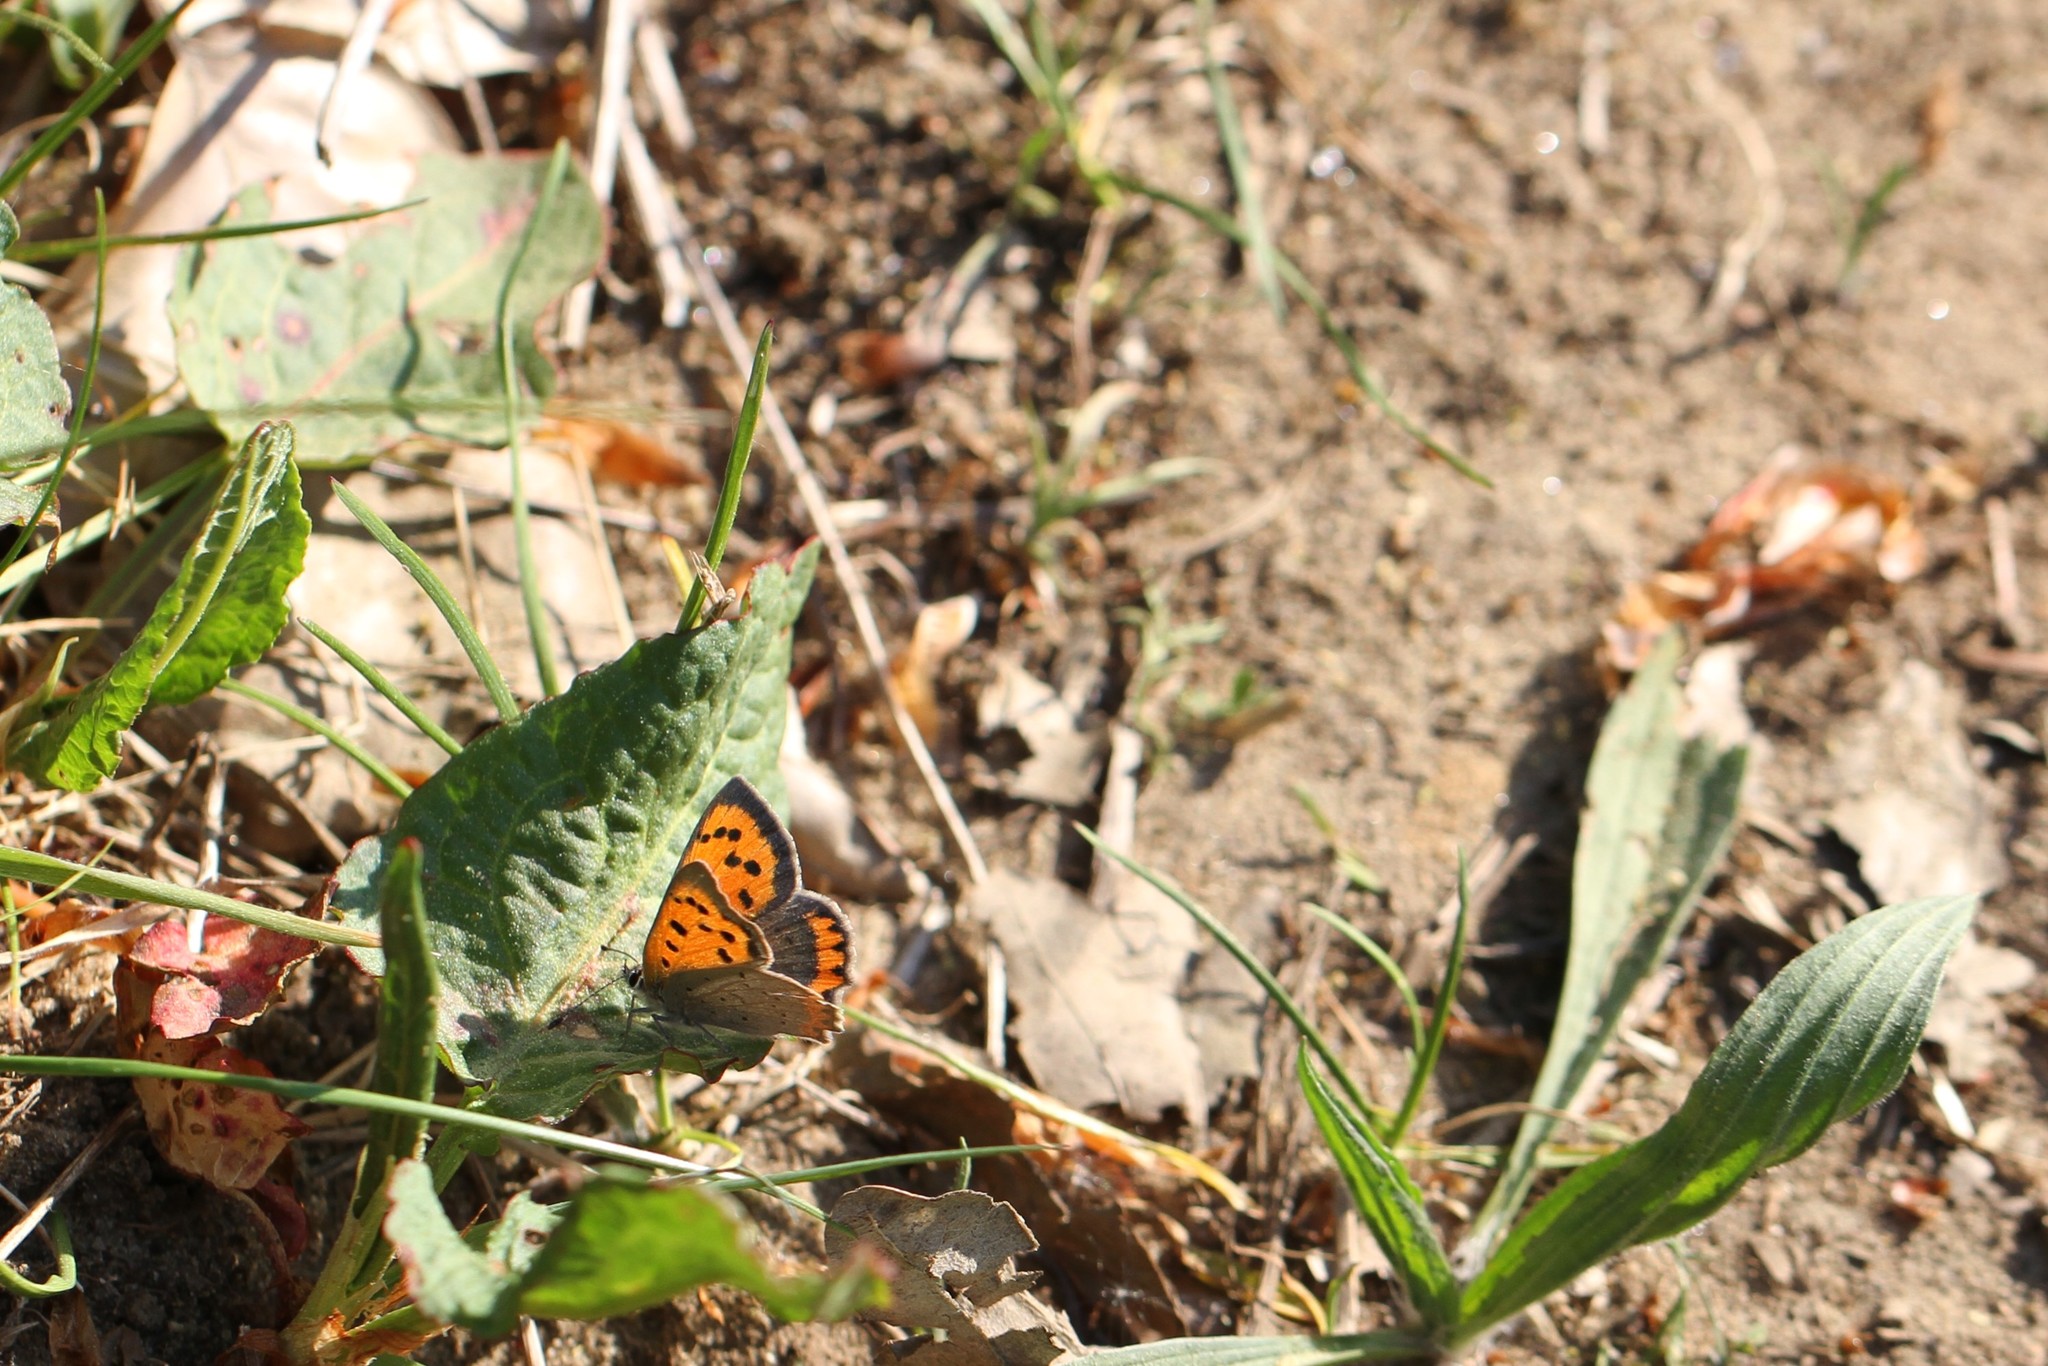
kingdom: Animalia
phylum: Arthropoda
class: Insecta
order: Lepidoptera
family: Lycaenidae
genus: Lycaena
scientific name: Lycaena phlaeas
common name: Small copper
